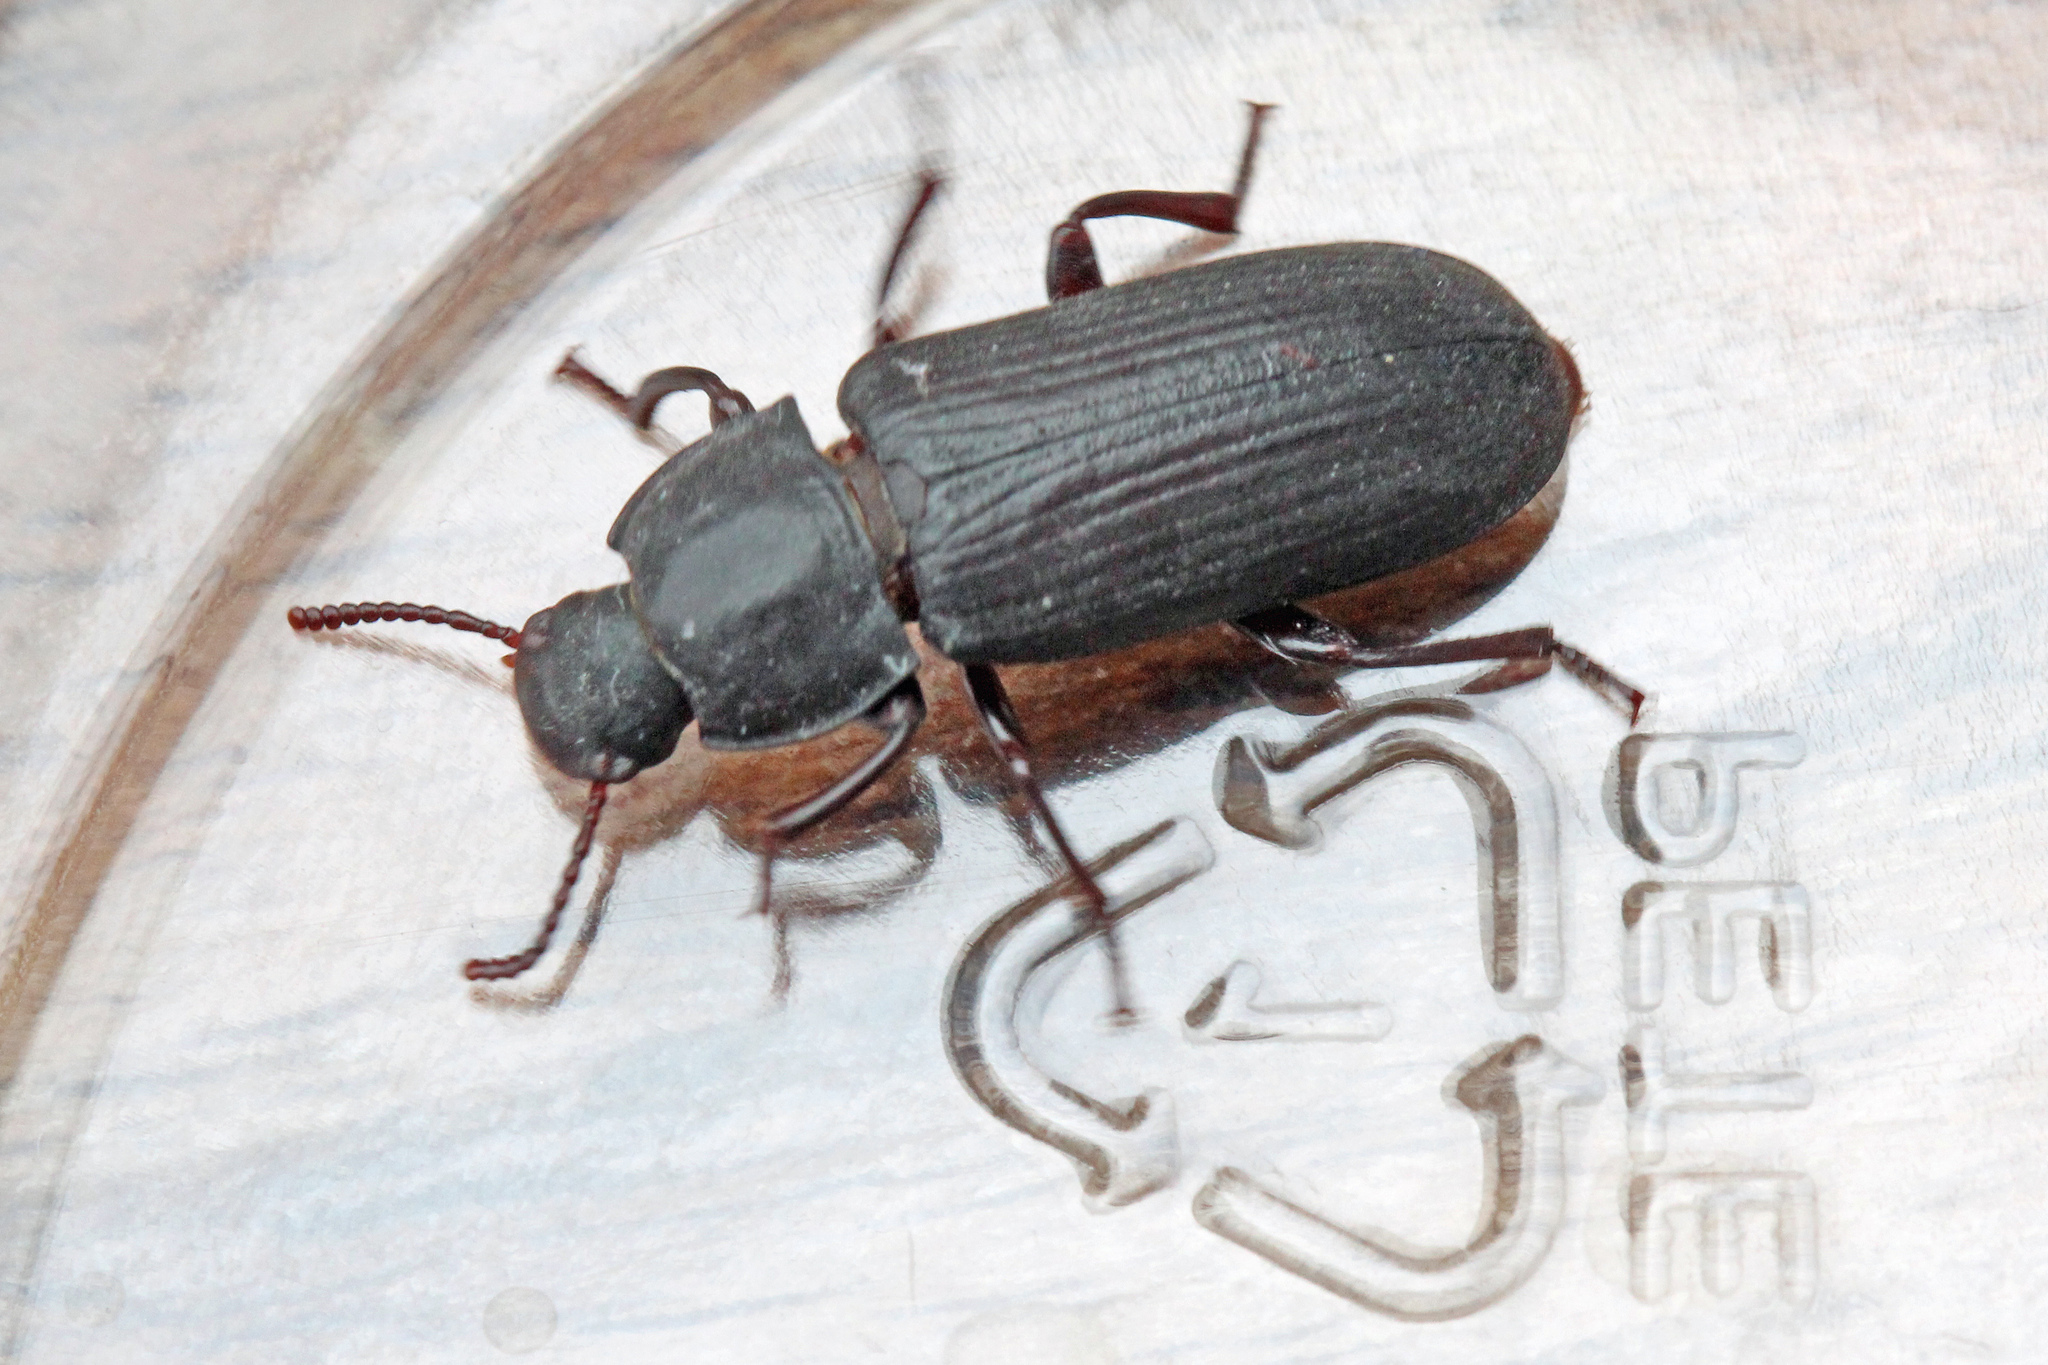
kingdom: Animalia
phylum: Arthropoda
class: Insecta
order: Coleoptera
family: Tenebrionidae
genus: Tenebrio
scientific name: Tenebrio molitor
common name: Hardback beetle
